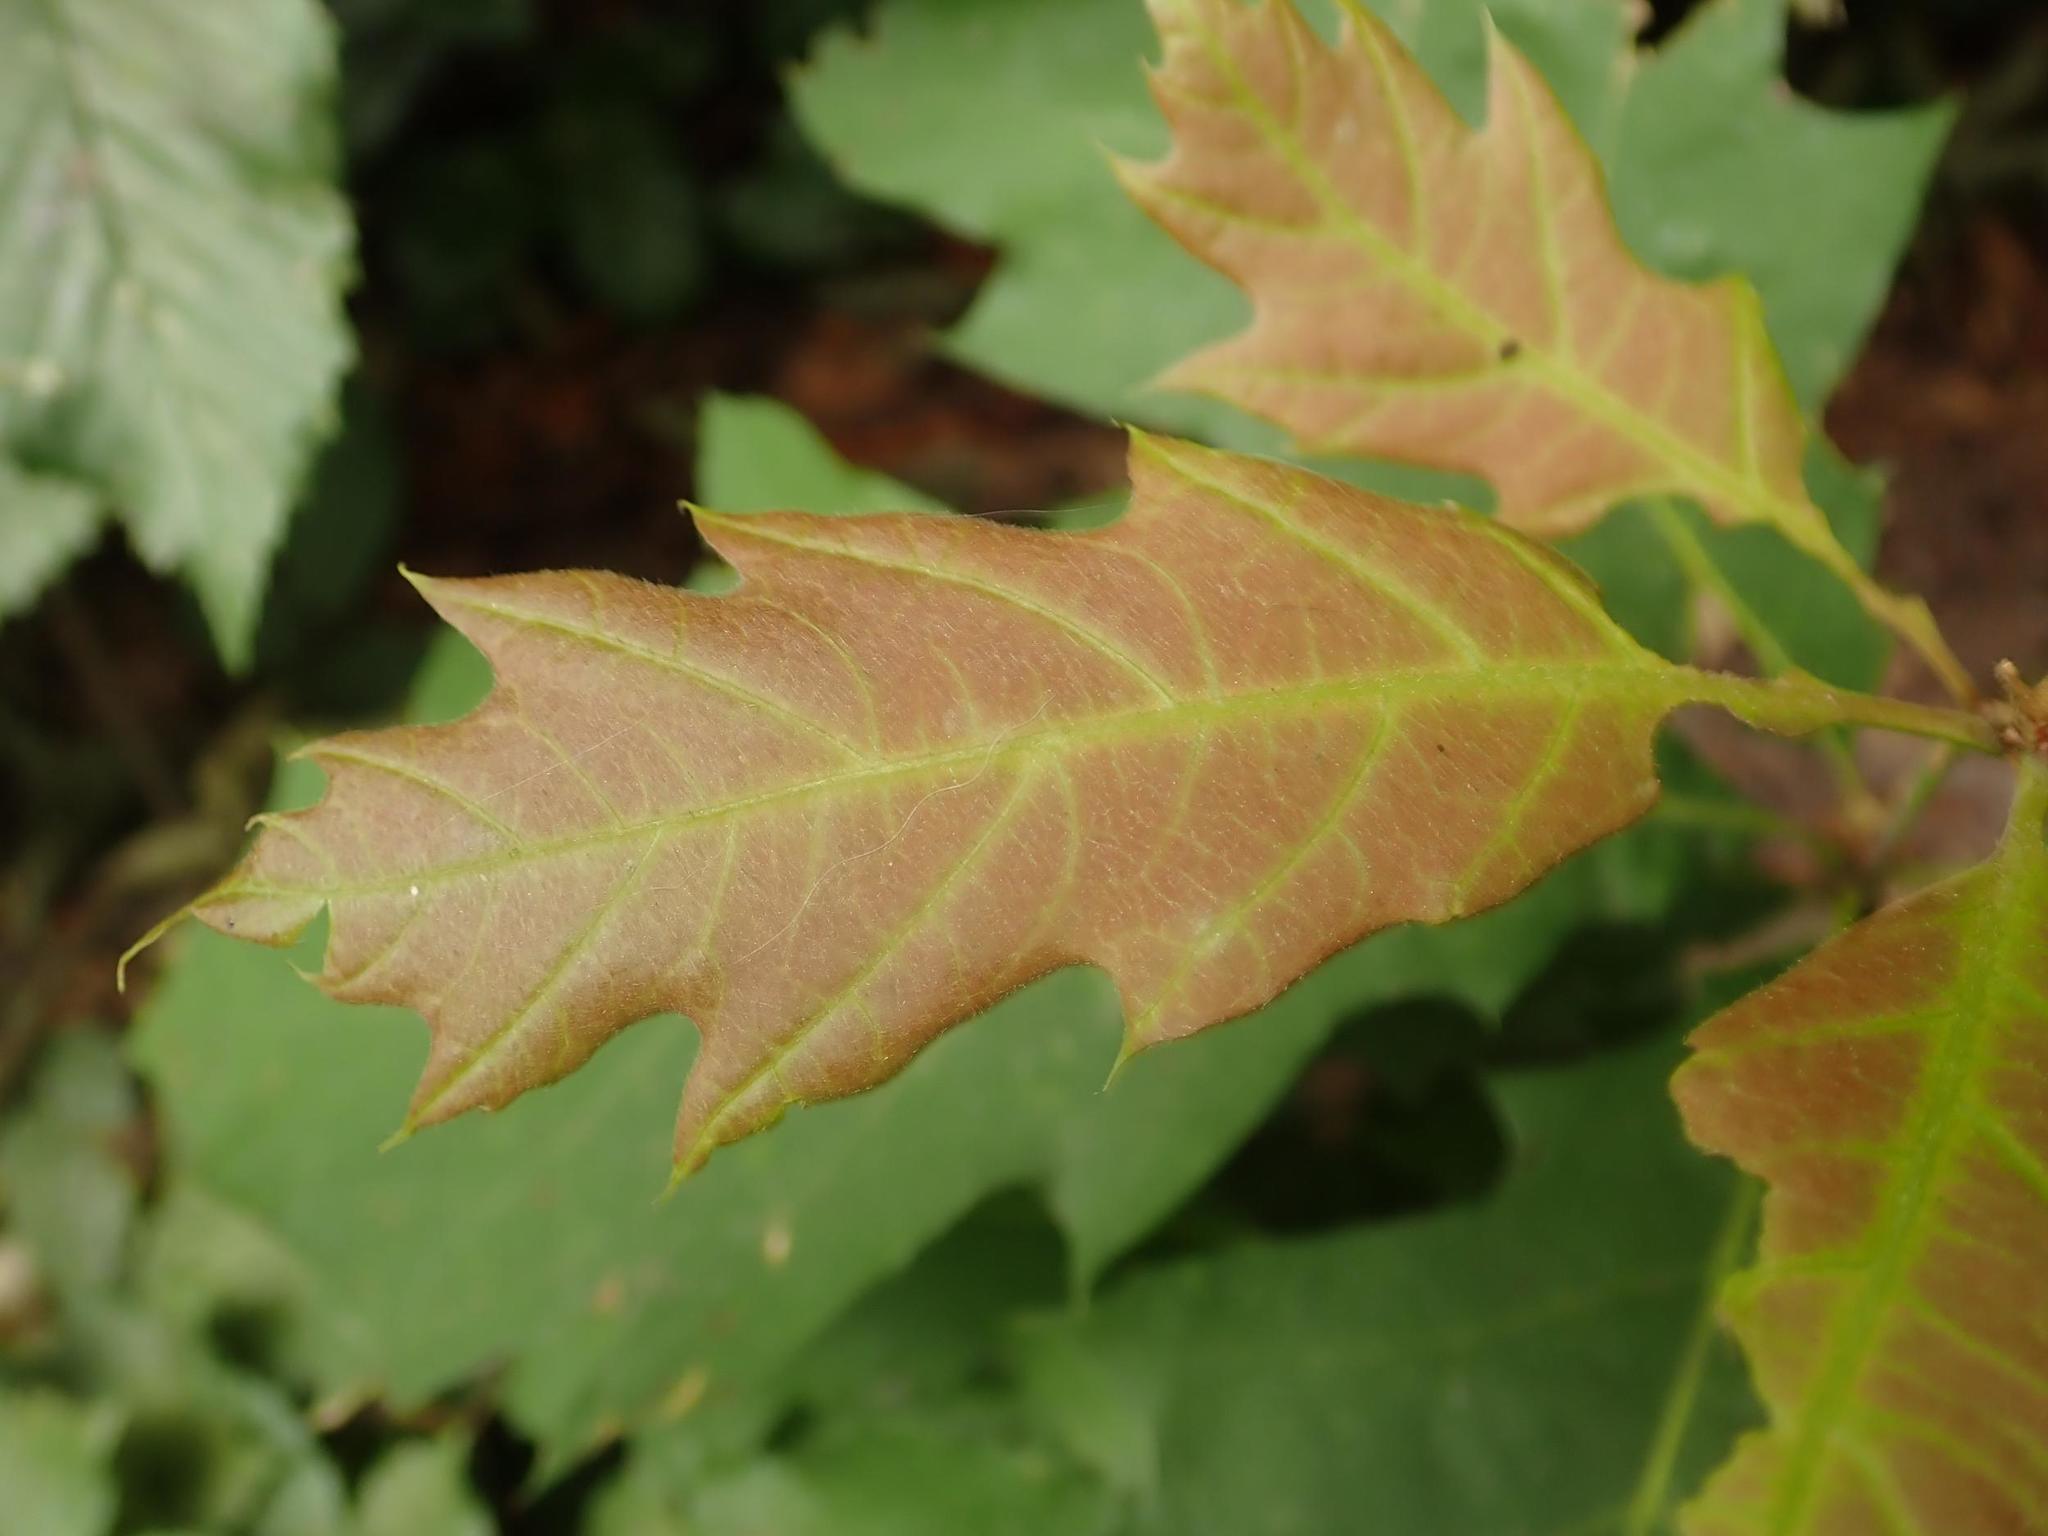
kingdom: Plantae
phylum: Tracheophyta
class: Magnoliopsida
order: Fagales
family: Fagaceae
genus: Quercus
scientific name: Quercus rubra
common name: Red oak
